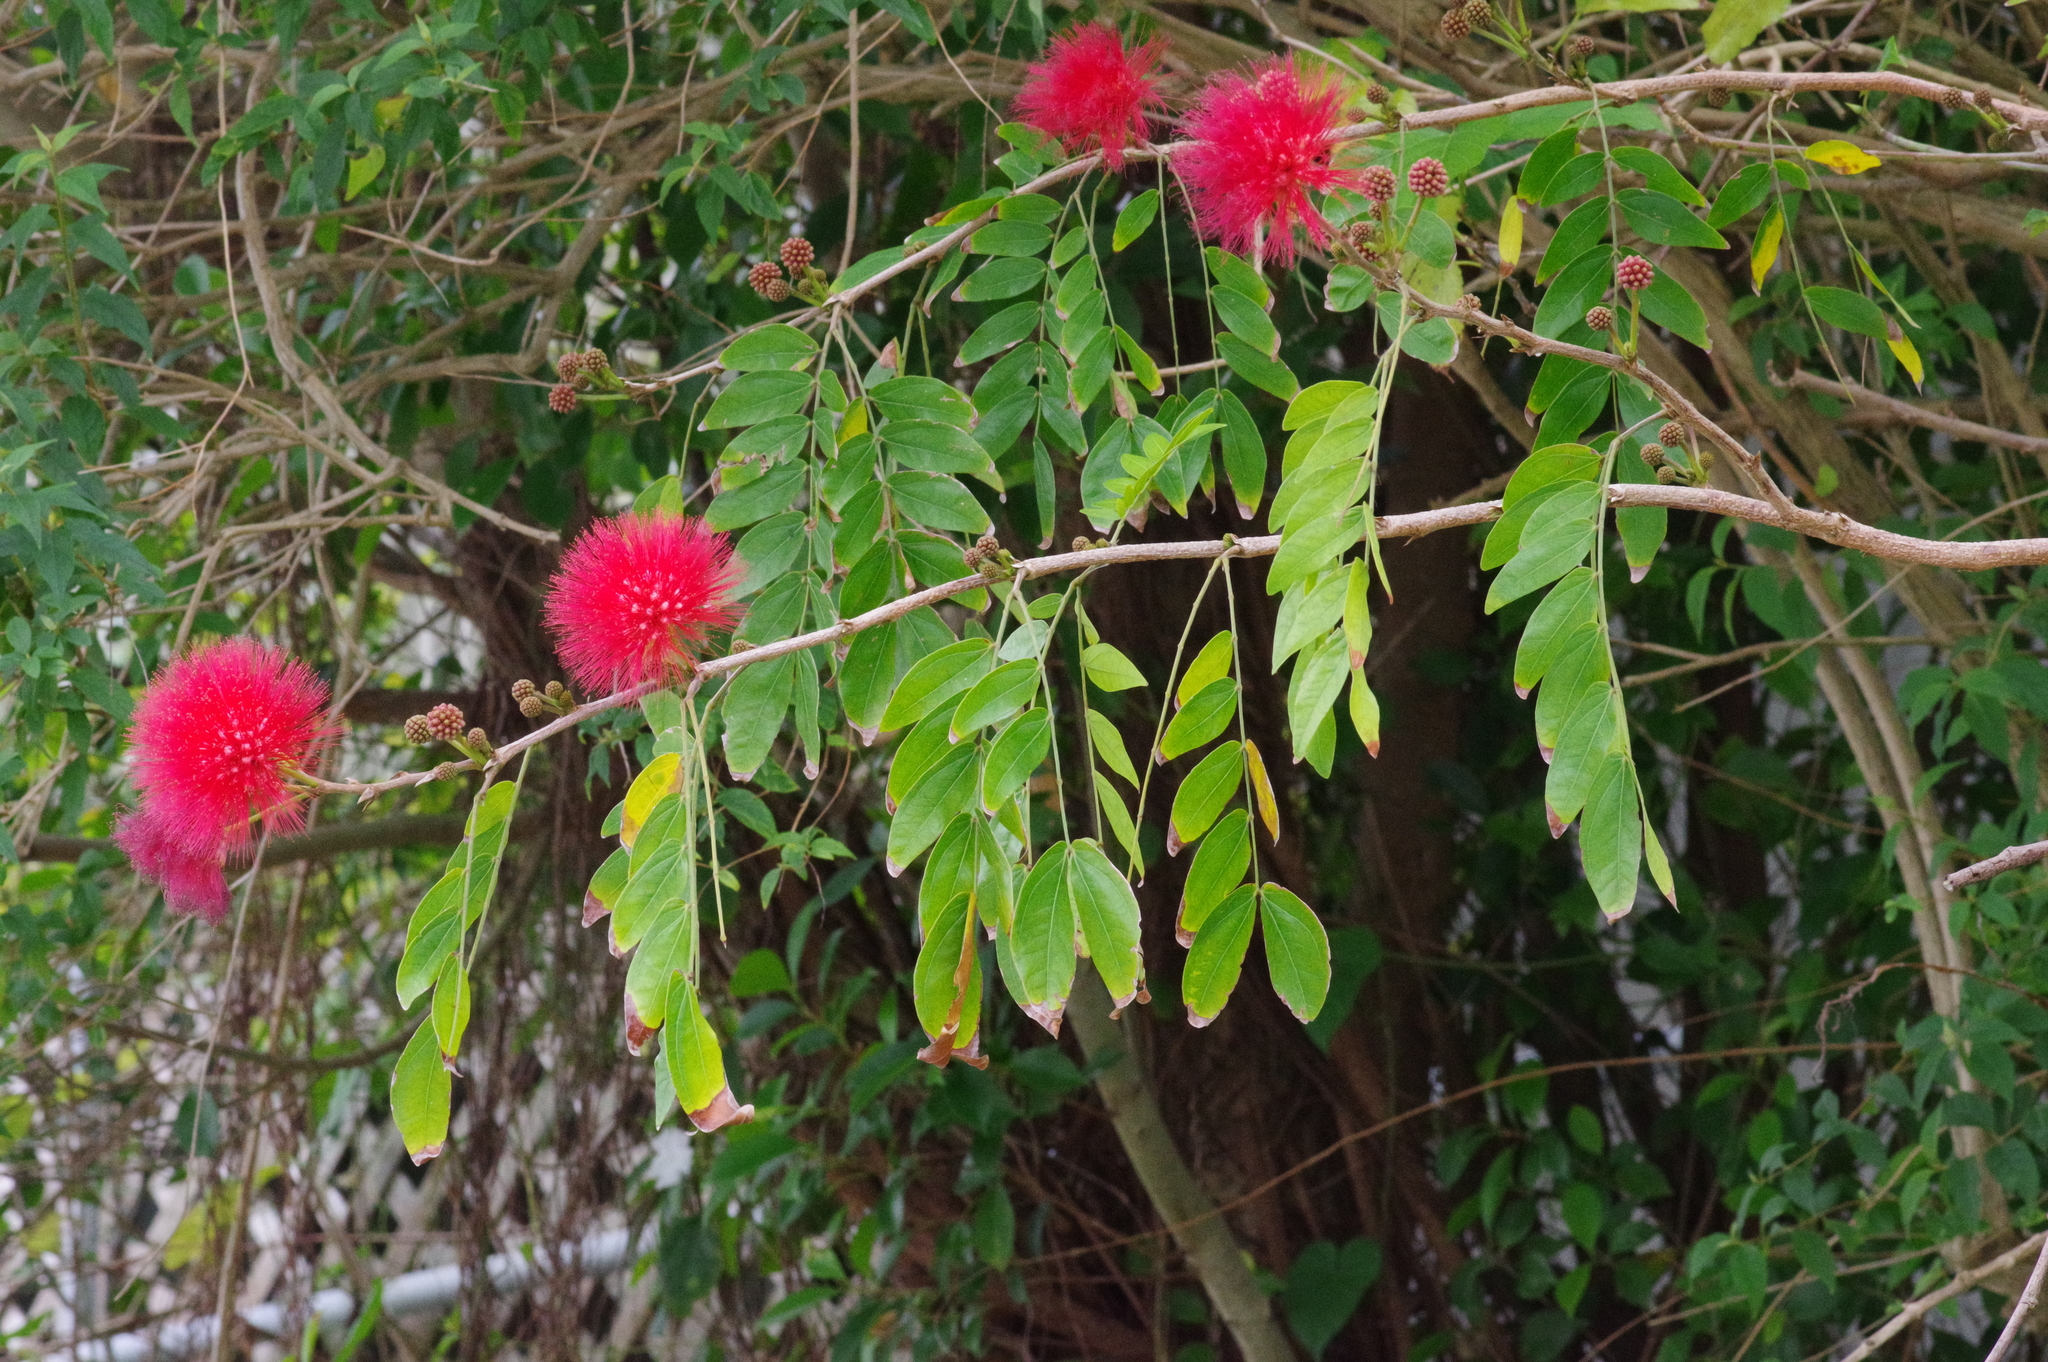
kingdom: Plantae
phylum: Tracheophyta
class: Magnoliopsida
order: Fabales
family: Fabaceae
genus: Calliandra
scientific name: Calliandra haematocephala
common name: Blood red tassel flower
